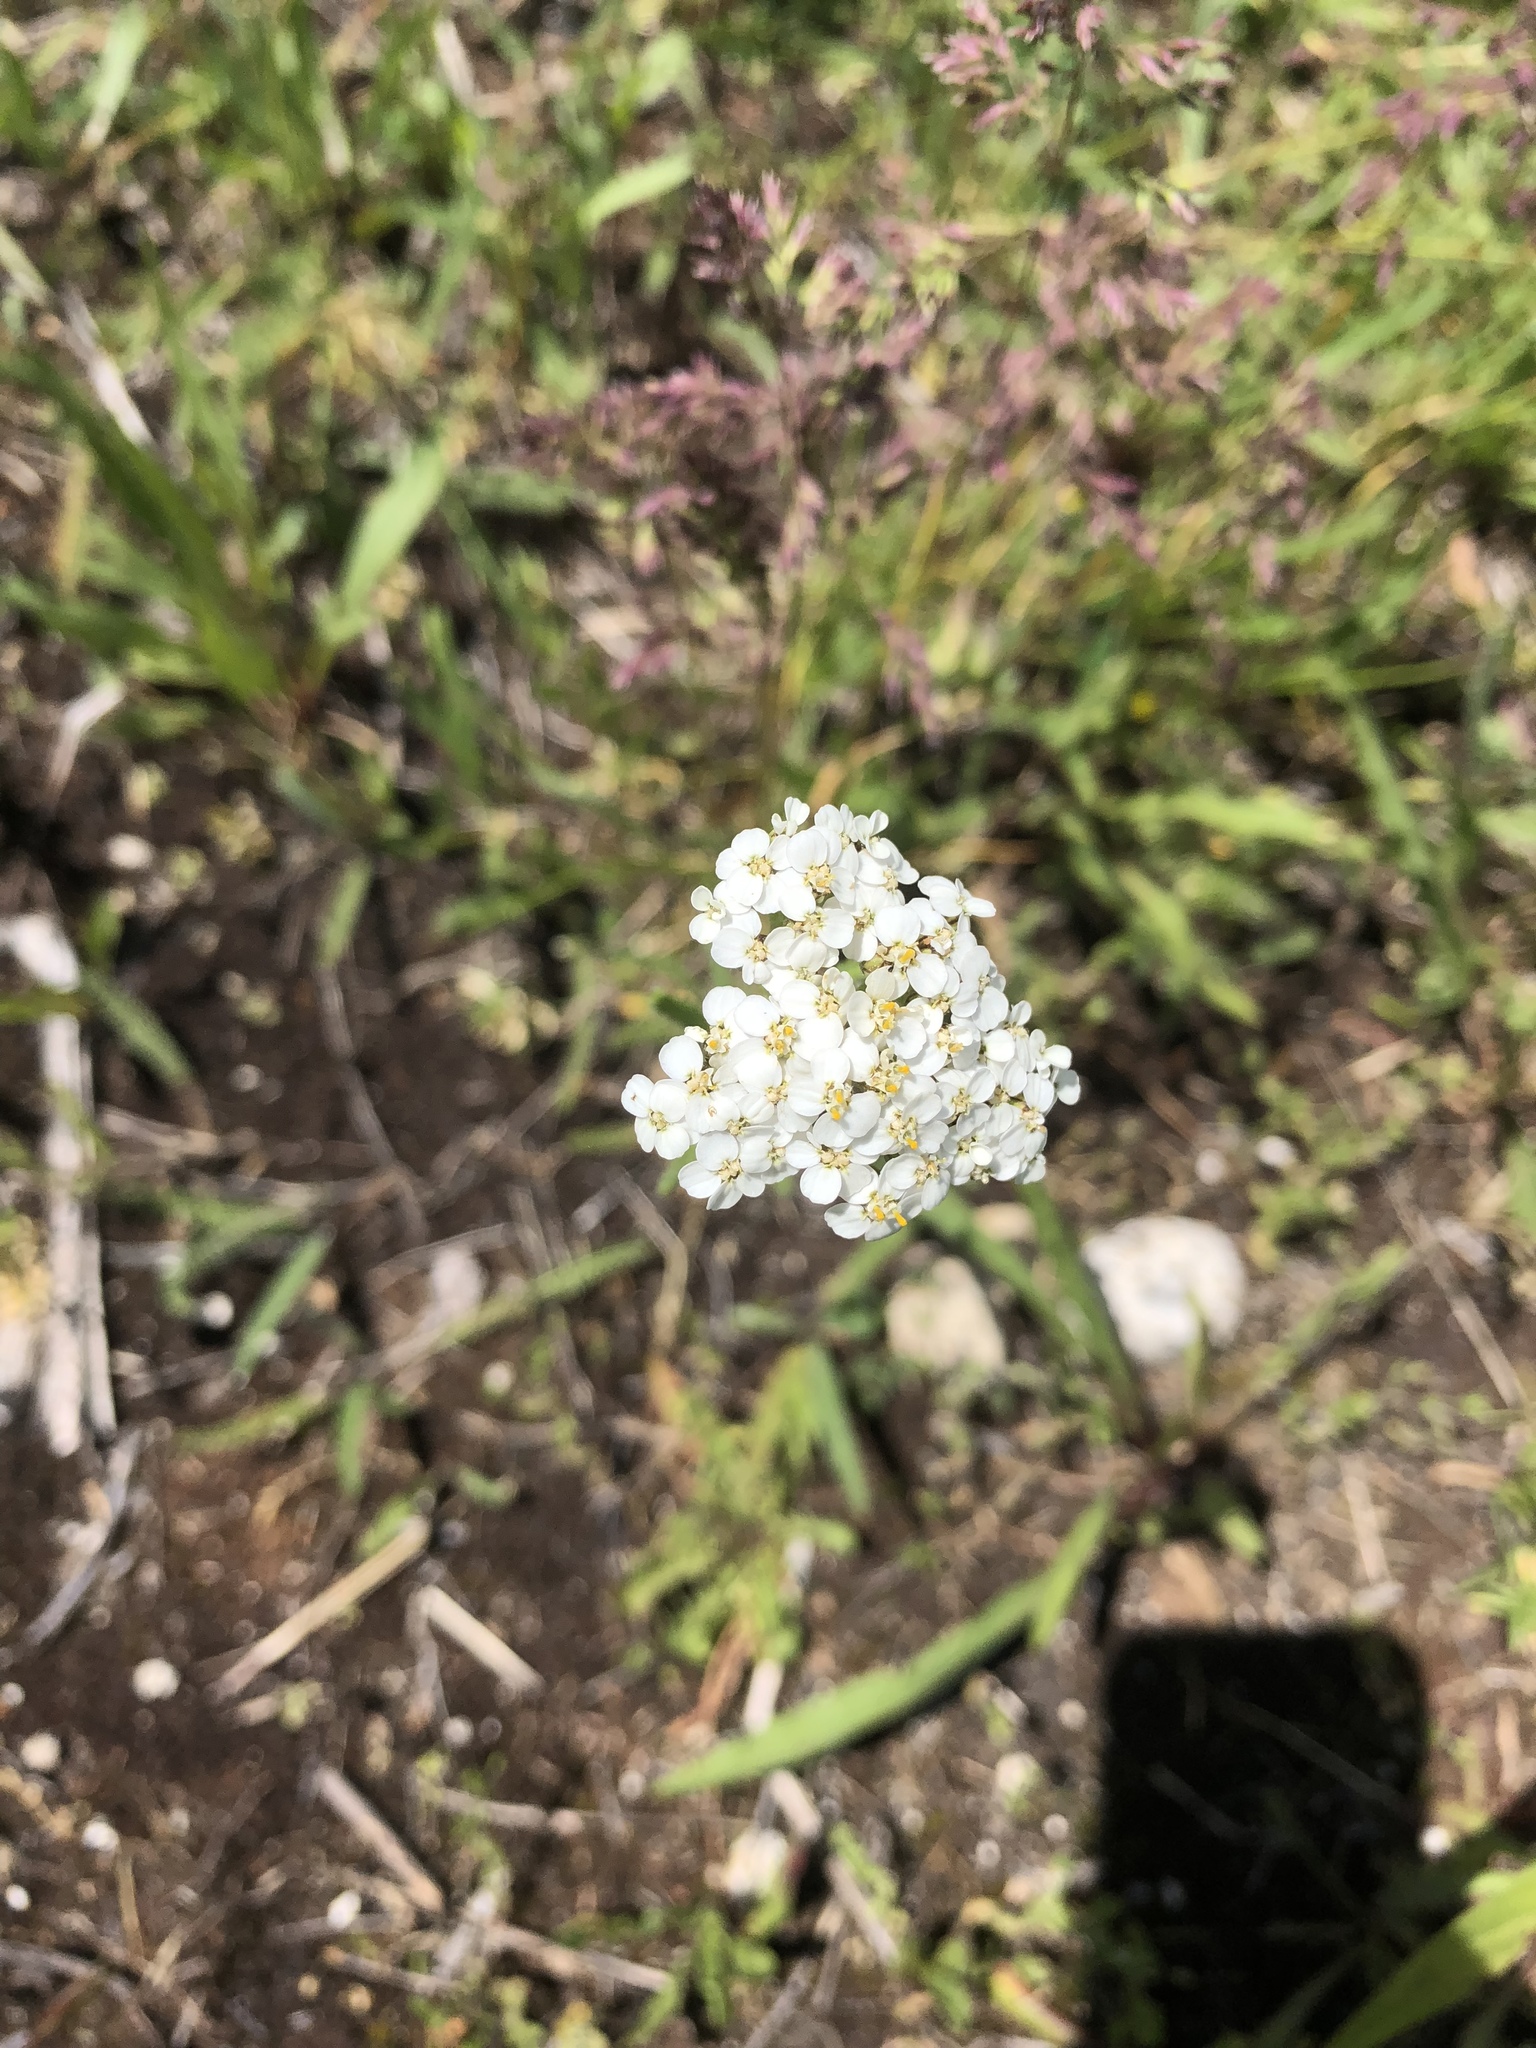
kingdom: Plantae
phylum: Tracheophyta
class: Magnoliopsida
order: Asterales
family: Asteraceae
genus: Achillea
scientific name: Achillea millefolium
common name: Yarrow
